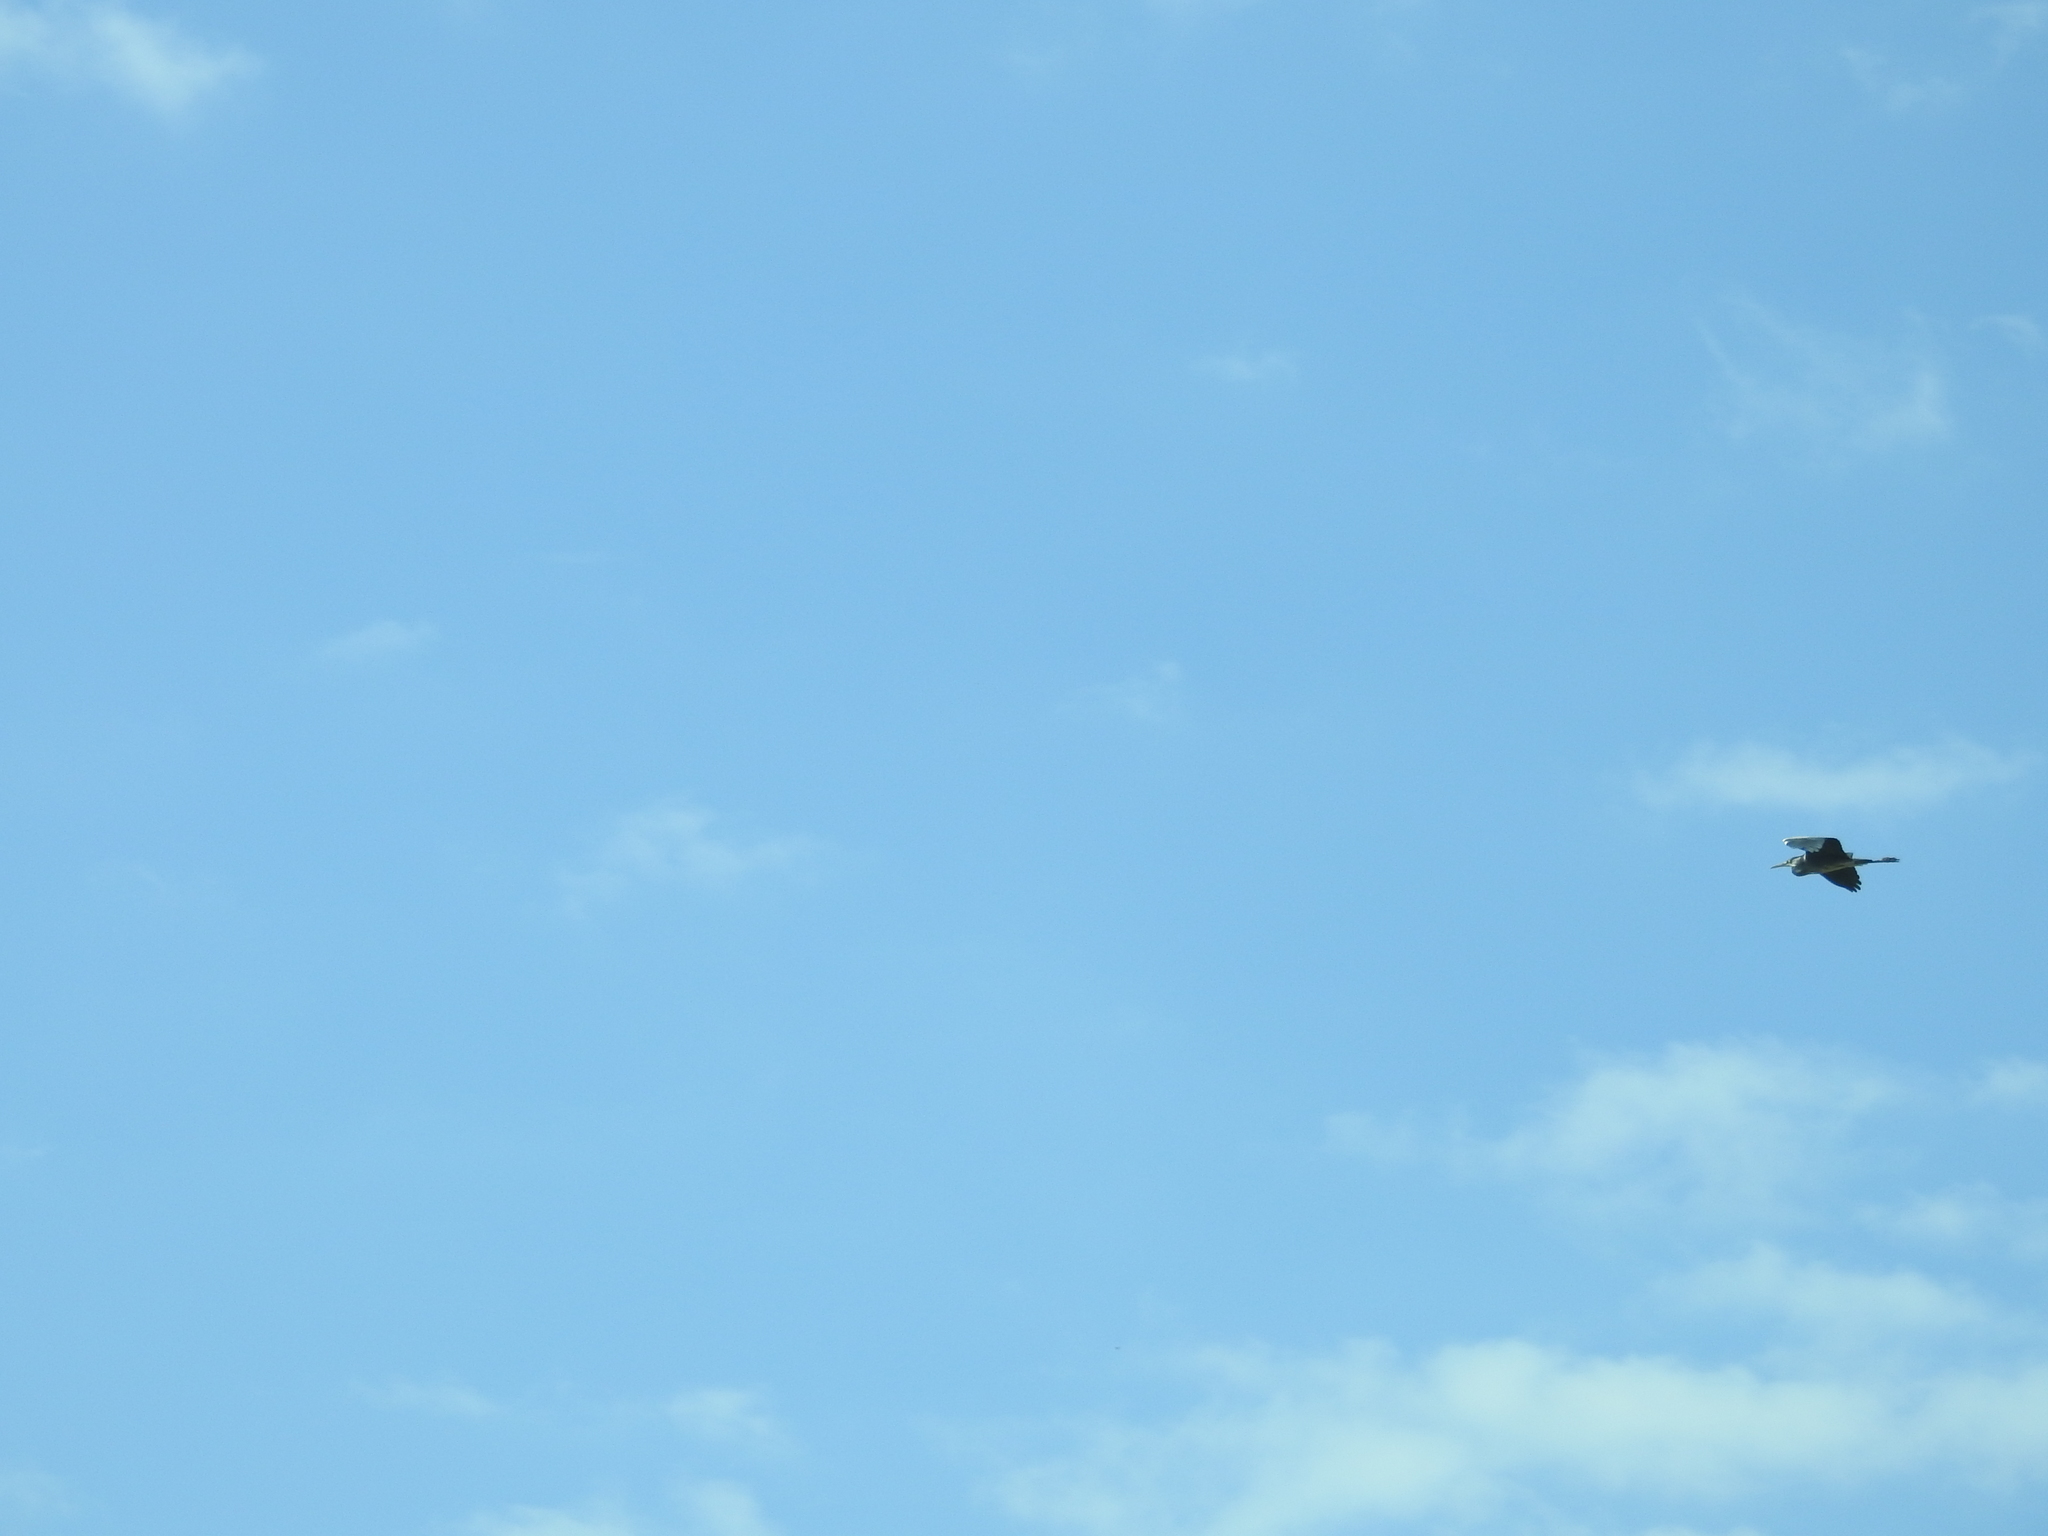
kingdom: Animalia
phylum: Chordata
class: Aves
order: Pelecaniformes
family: Ardeidae
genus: Ardea
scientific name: Ardea cinerea
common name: Grey heron
